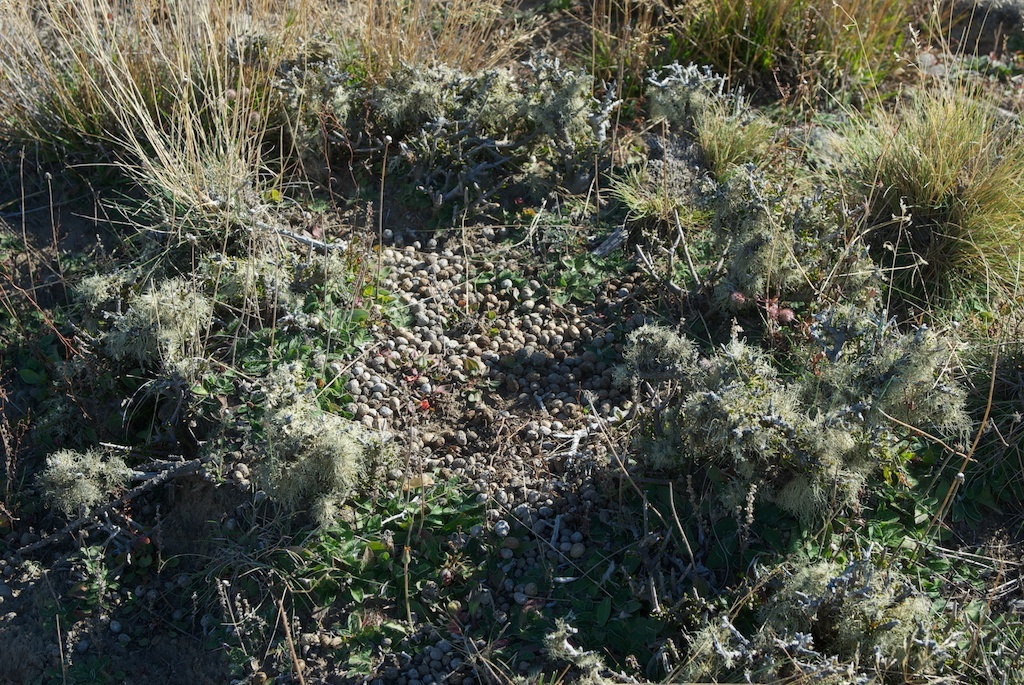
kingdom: Animalia
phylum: Chordata
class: Mammalia
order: Lagomorpha
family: Leporidae
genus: Oryctolagus
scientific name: Oryctolagus cuniculus
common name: European rabbit
